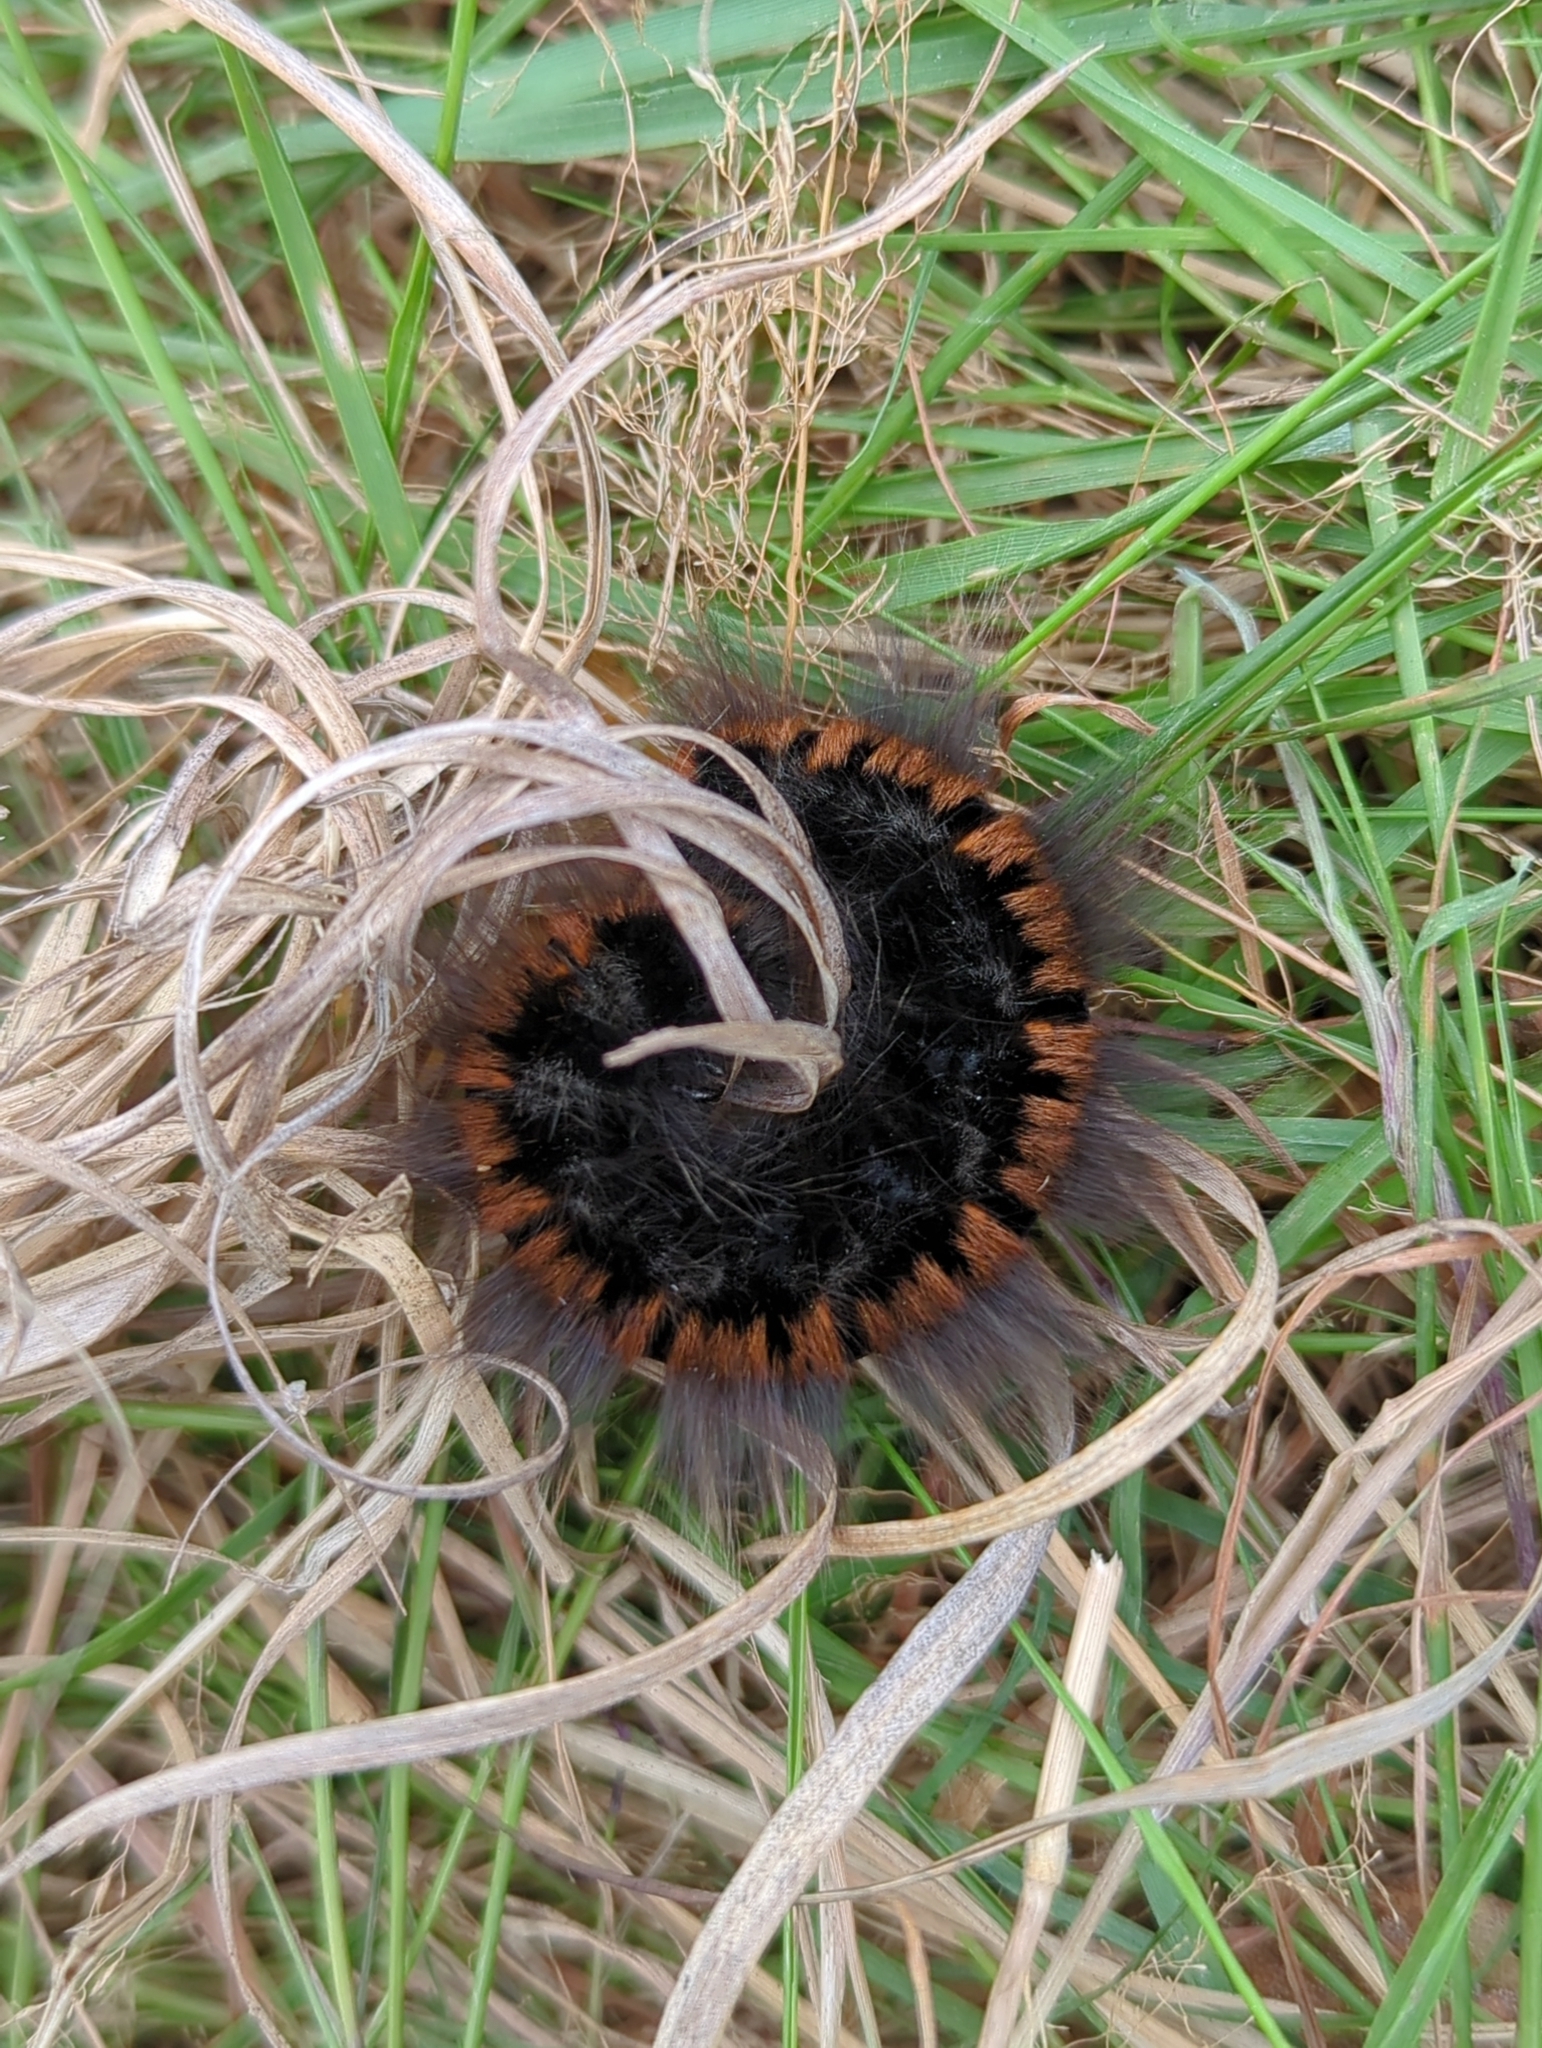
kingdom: Animalia
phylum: Arthropoda
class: Insecta
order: Lepidoptera
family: Lasiocampidae
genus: Macrothylacia
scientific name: Macrothylacia rubi
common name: Fox moth
